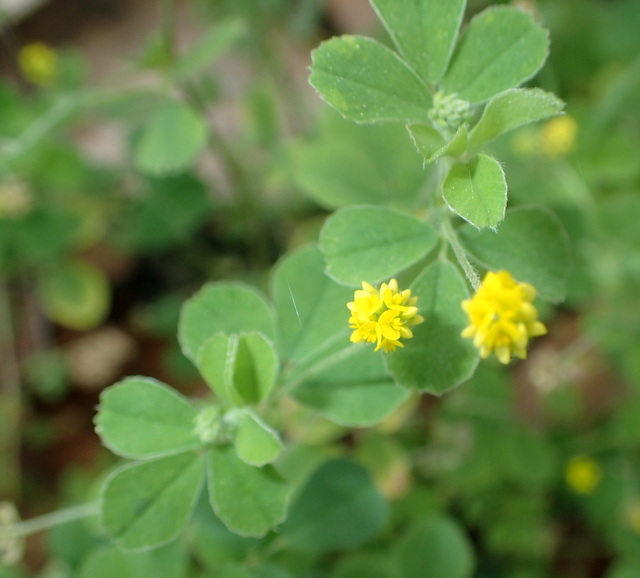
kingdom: Plantae
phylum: Tracheophyta
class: Magnoliopsida
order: Fabales
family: Fabaceae
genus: Medicago
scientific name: Medicago lupulina
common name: Black medick
